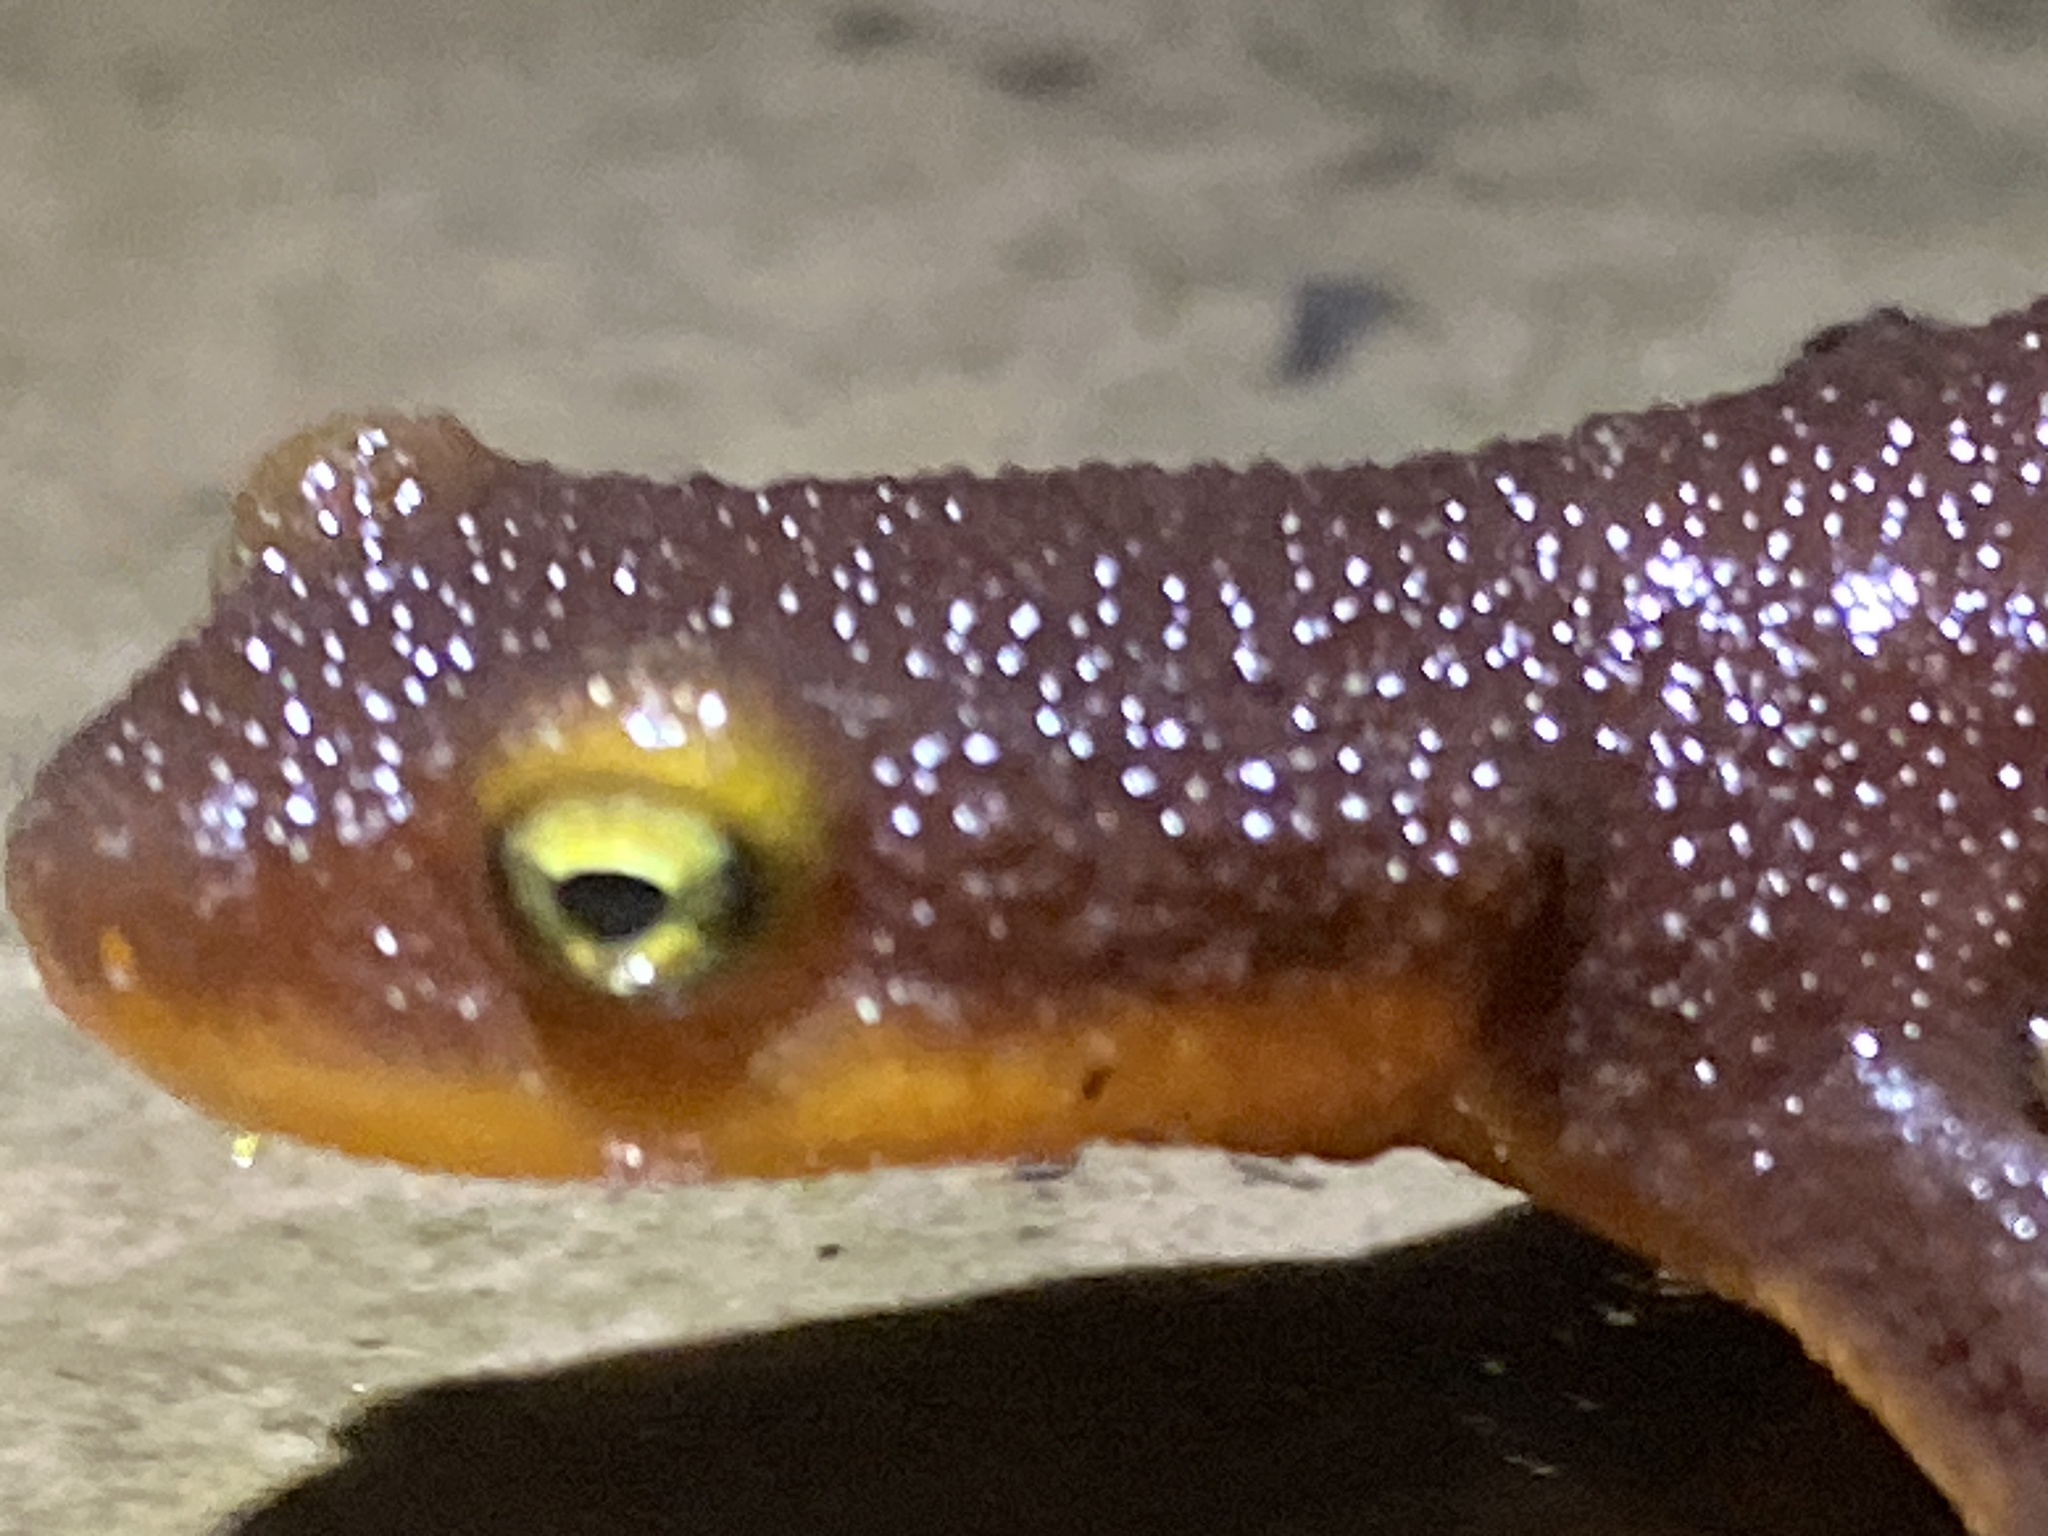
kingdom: Animalia
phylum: Chordata
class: Amphibia
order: Caudata
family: Salamandridae
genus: Taricha
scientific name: Taricha torosa
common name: California newt
